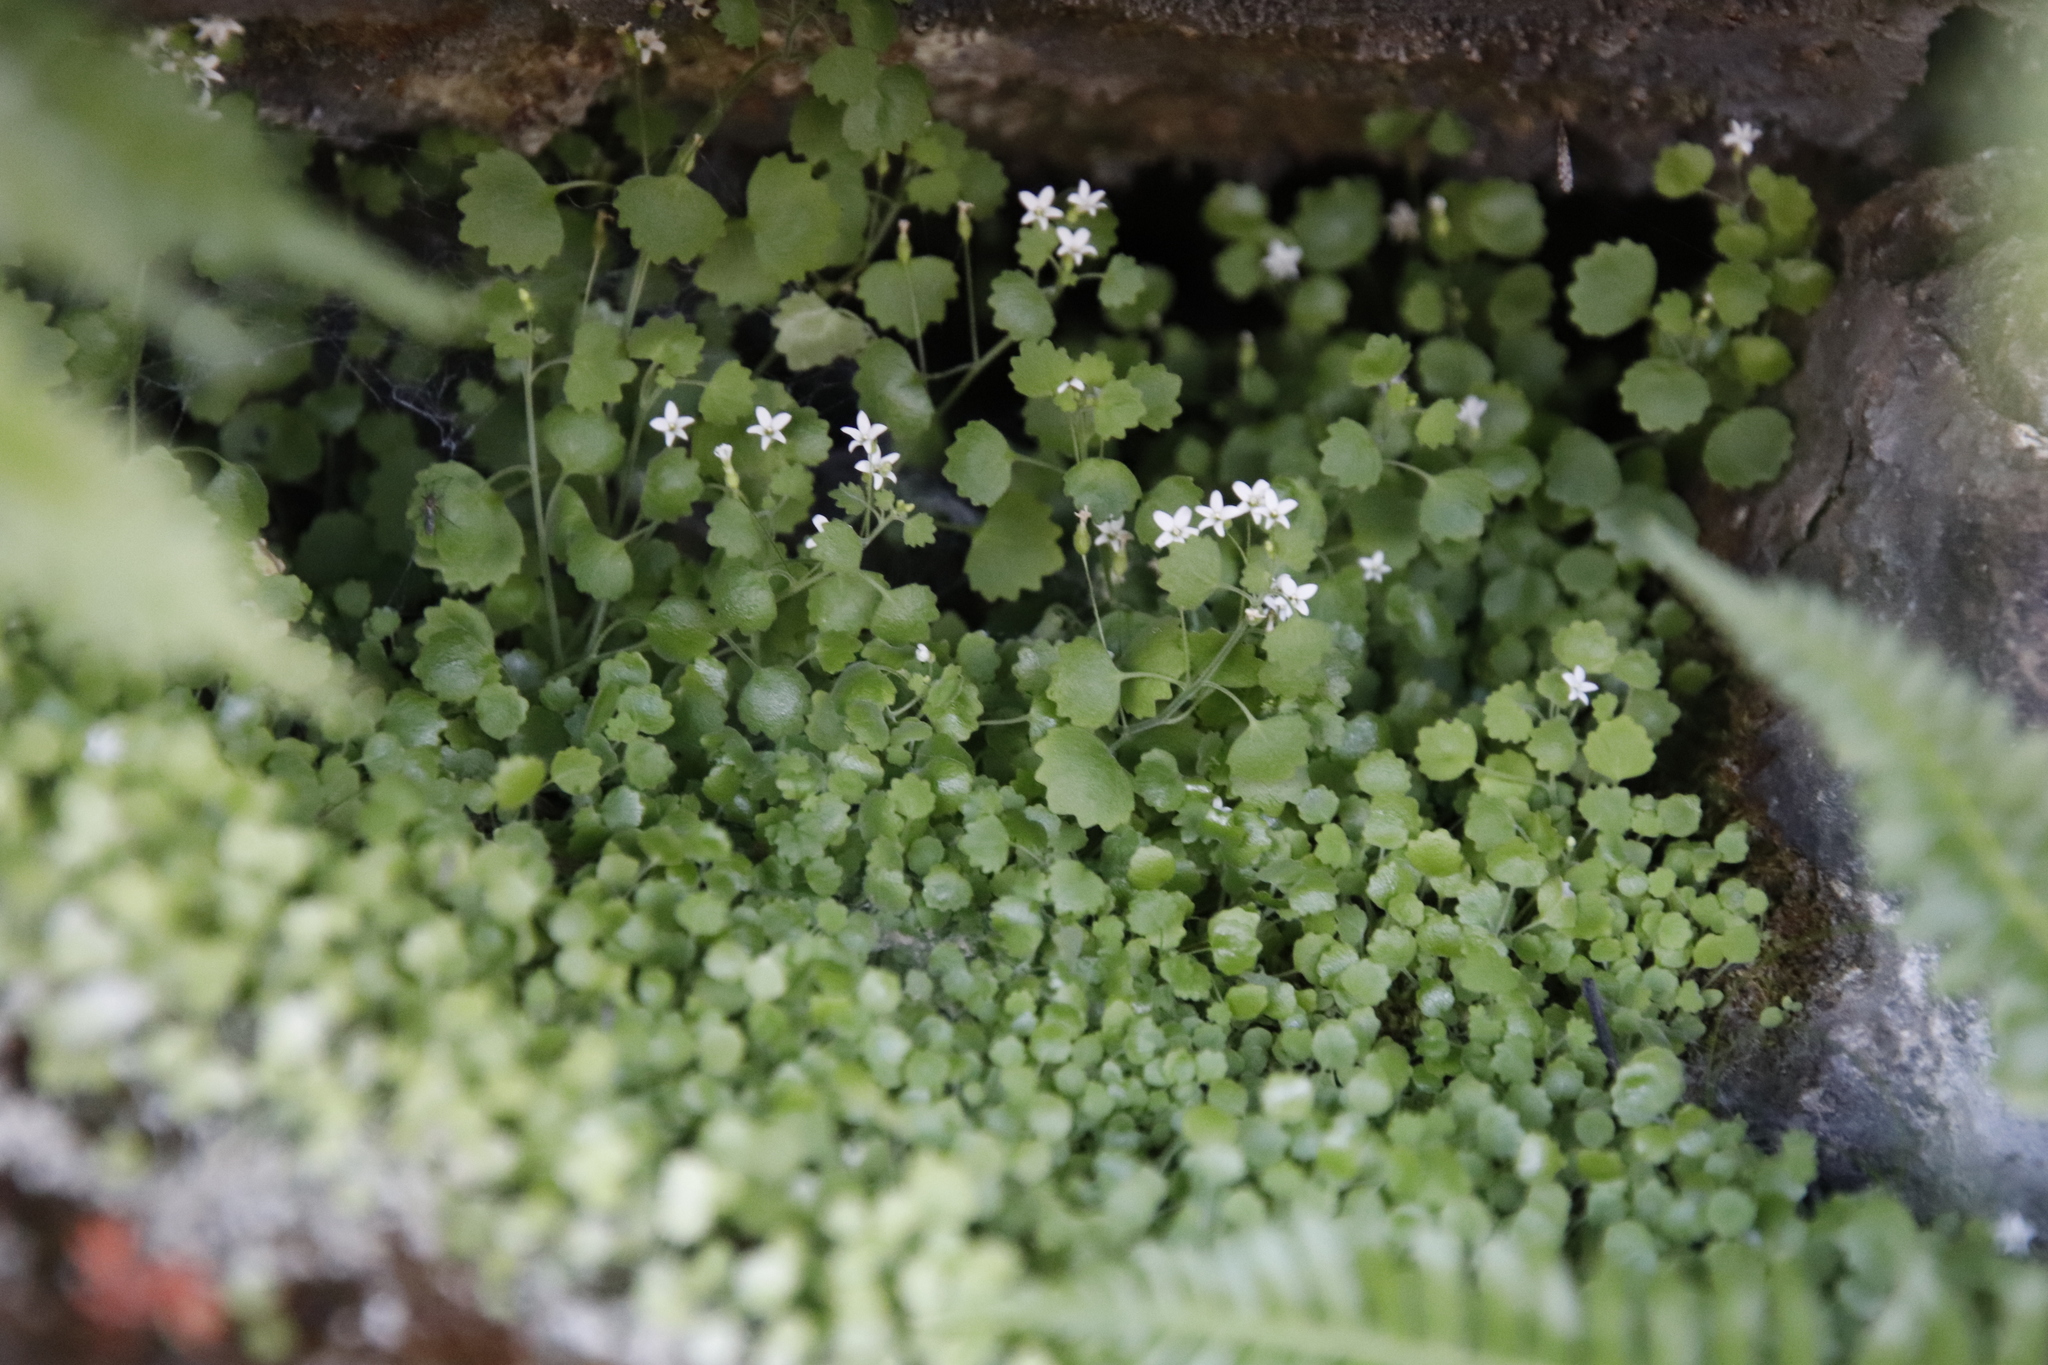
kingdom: Plantae
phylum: Tracheophyta
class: Magnoliopsida
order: Asterales
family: Campanulaceae
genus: Wimmerella
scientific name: Wimmerella pygmaea
